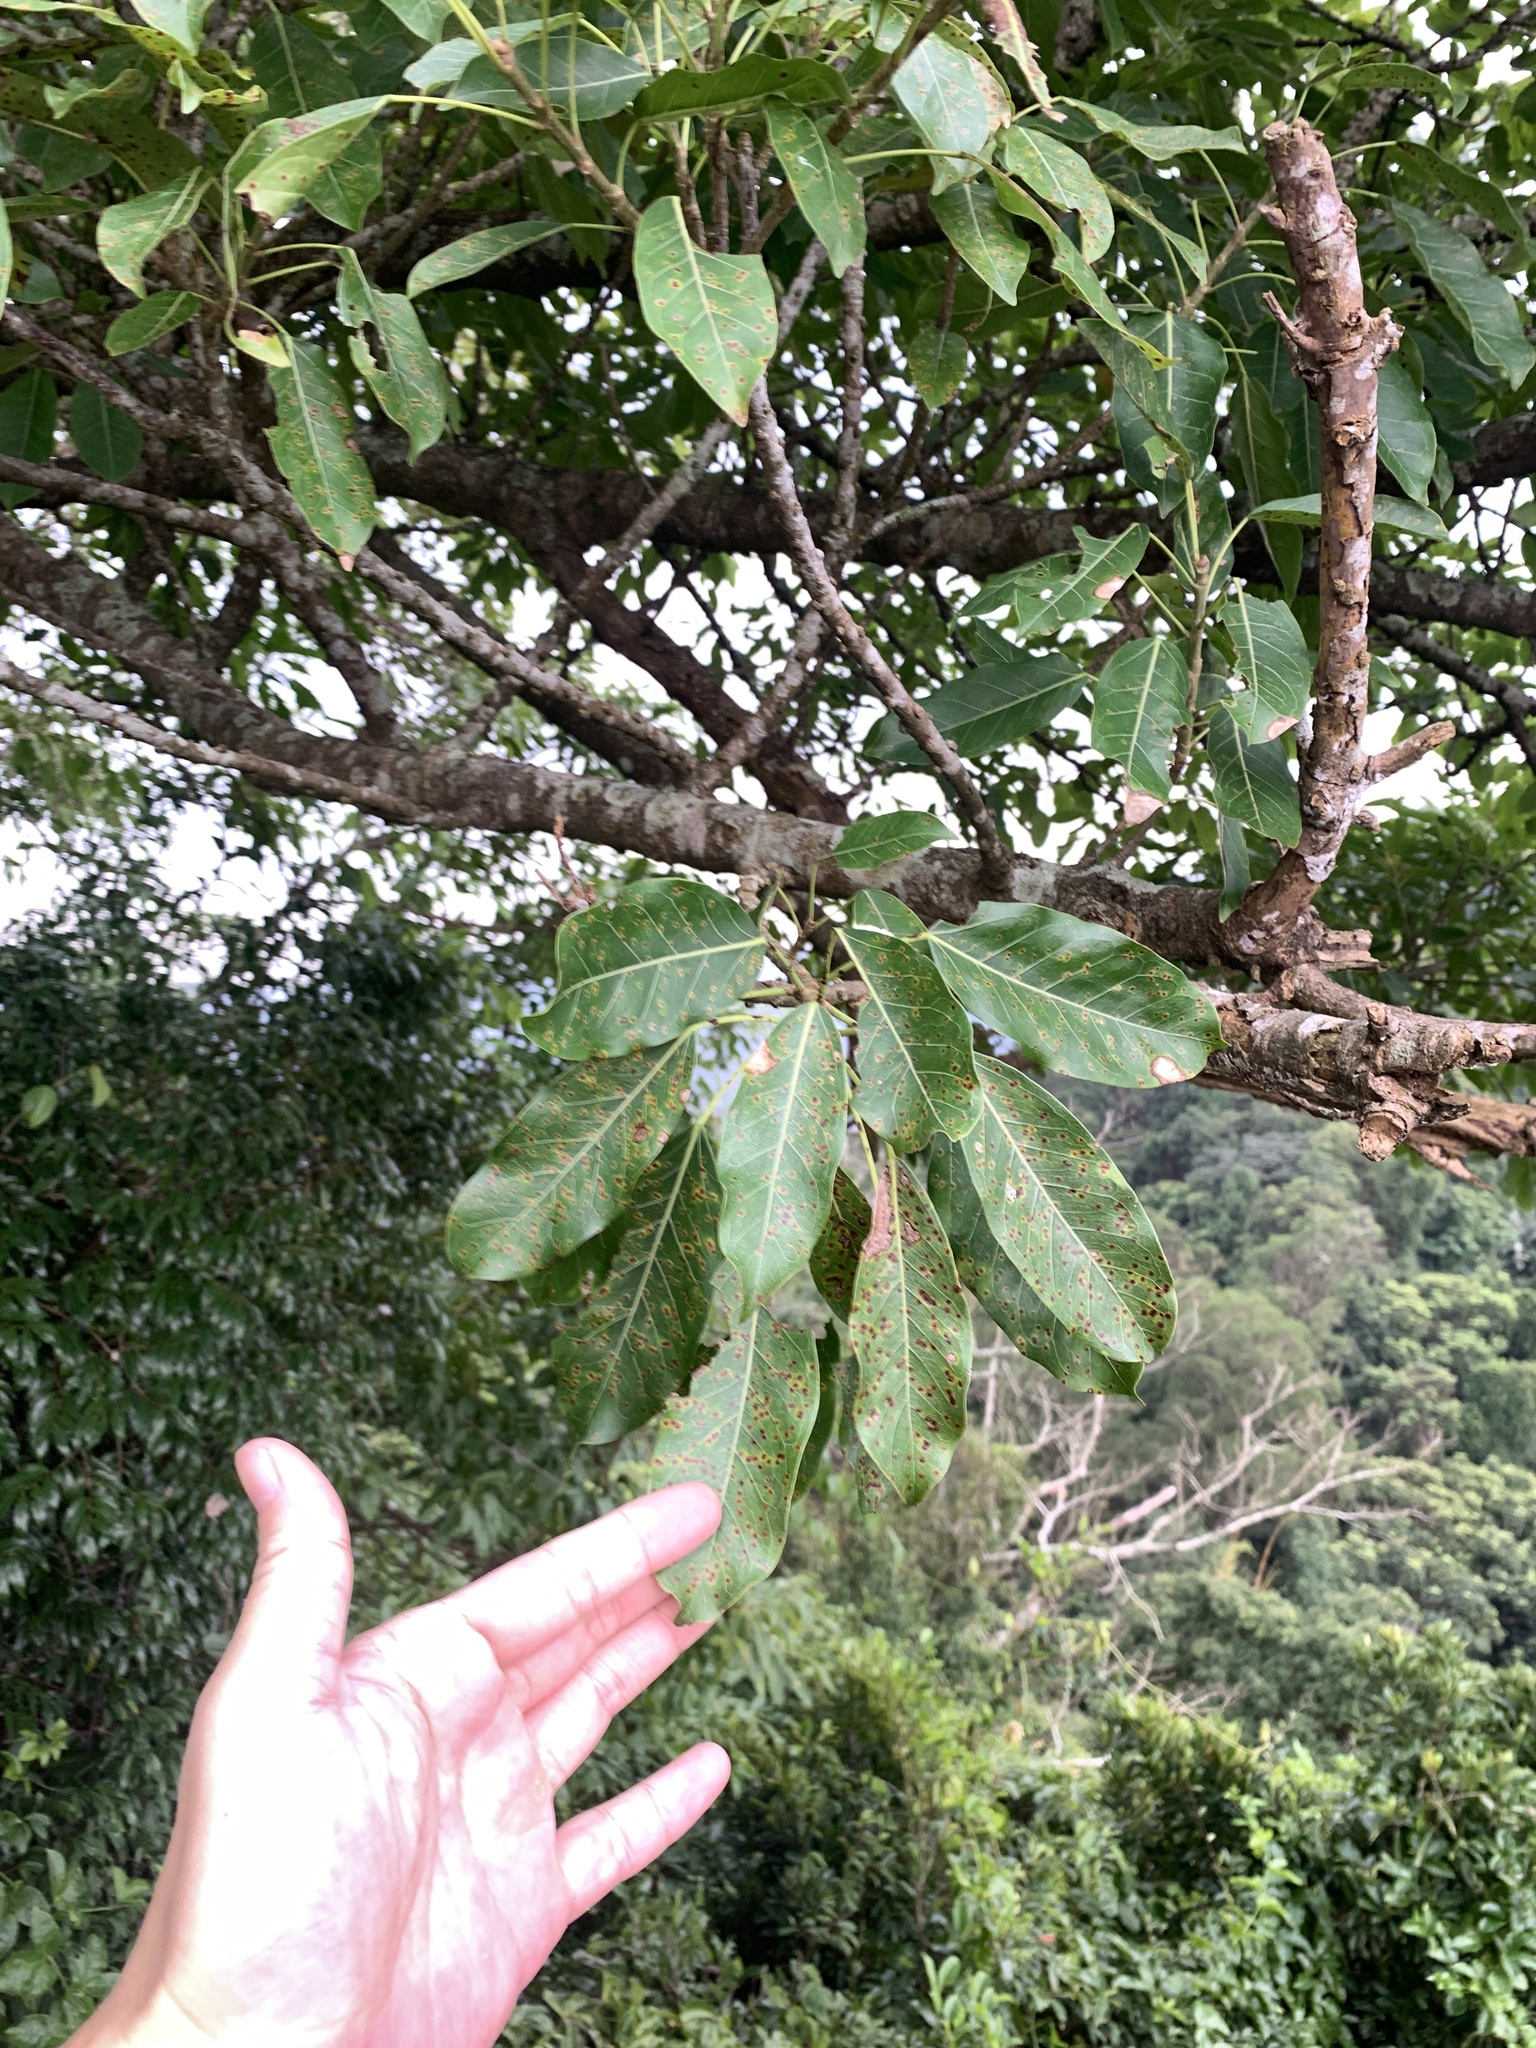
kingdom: Plantae
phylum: Tracheophyta
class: Magnoliopsida
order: Rosales
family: Moraceae
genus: Ficus
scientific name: Ficus subpisocarpa
